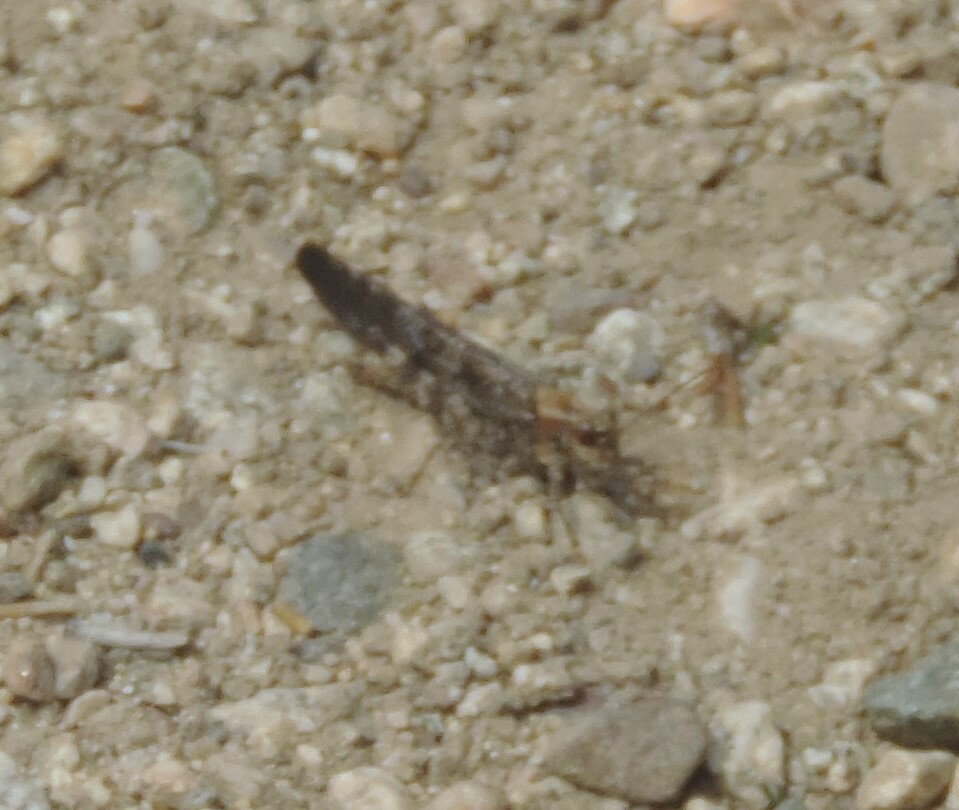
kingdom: Animalia
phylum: Arthropoda
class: Insecta
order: Orthoptera
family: Acrididae
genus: Trimerotropis
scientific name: Trimerotropis verruculata
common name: Crackling forest grasshopper
